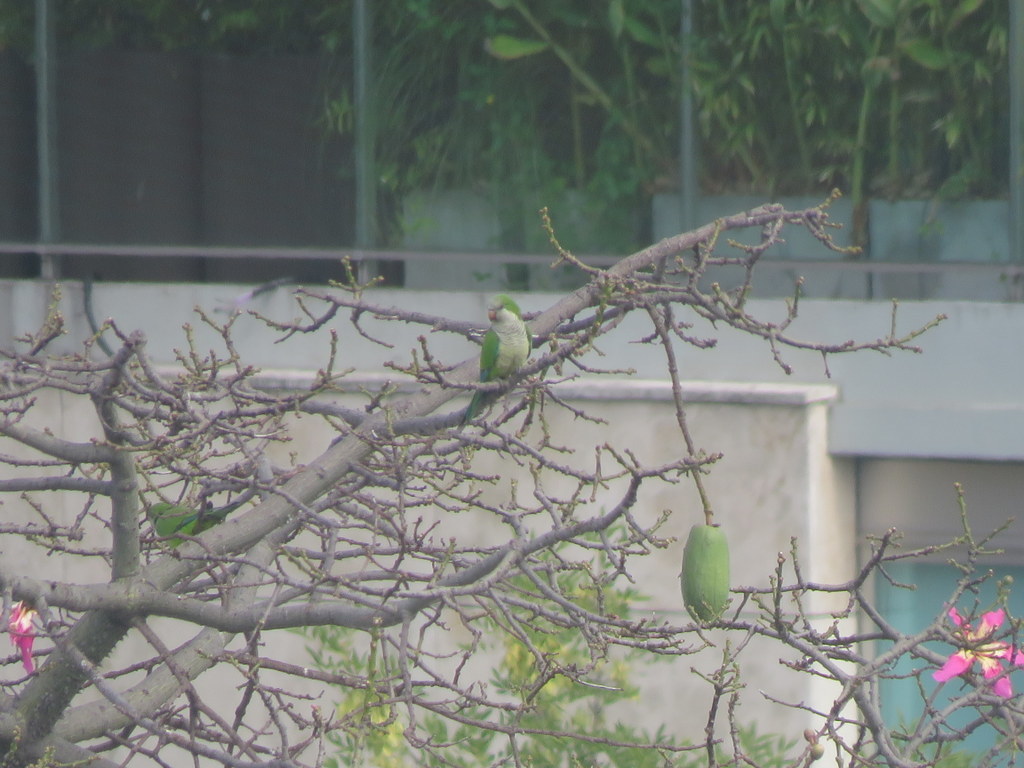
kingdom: Animalia
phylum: Chordata
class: Aves
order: Psittaciformes
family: Psittacidae
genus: Myiopsitta
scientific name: Myiopsitta monachus
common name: Monk parakeet
